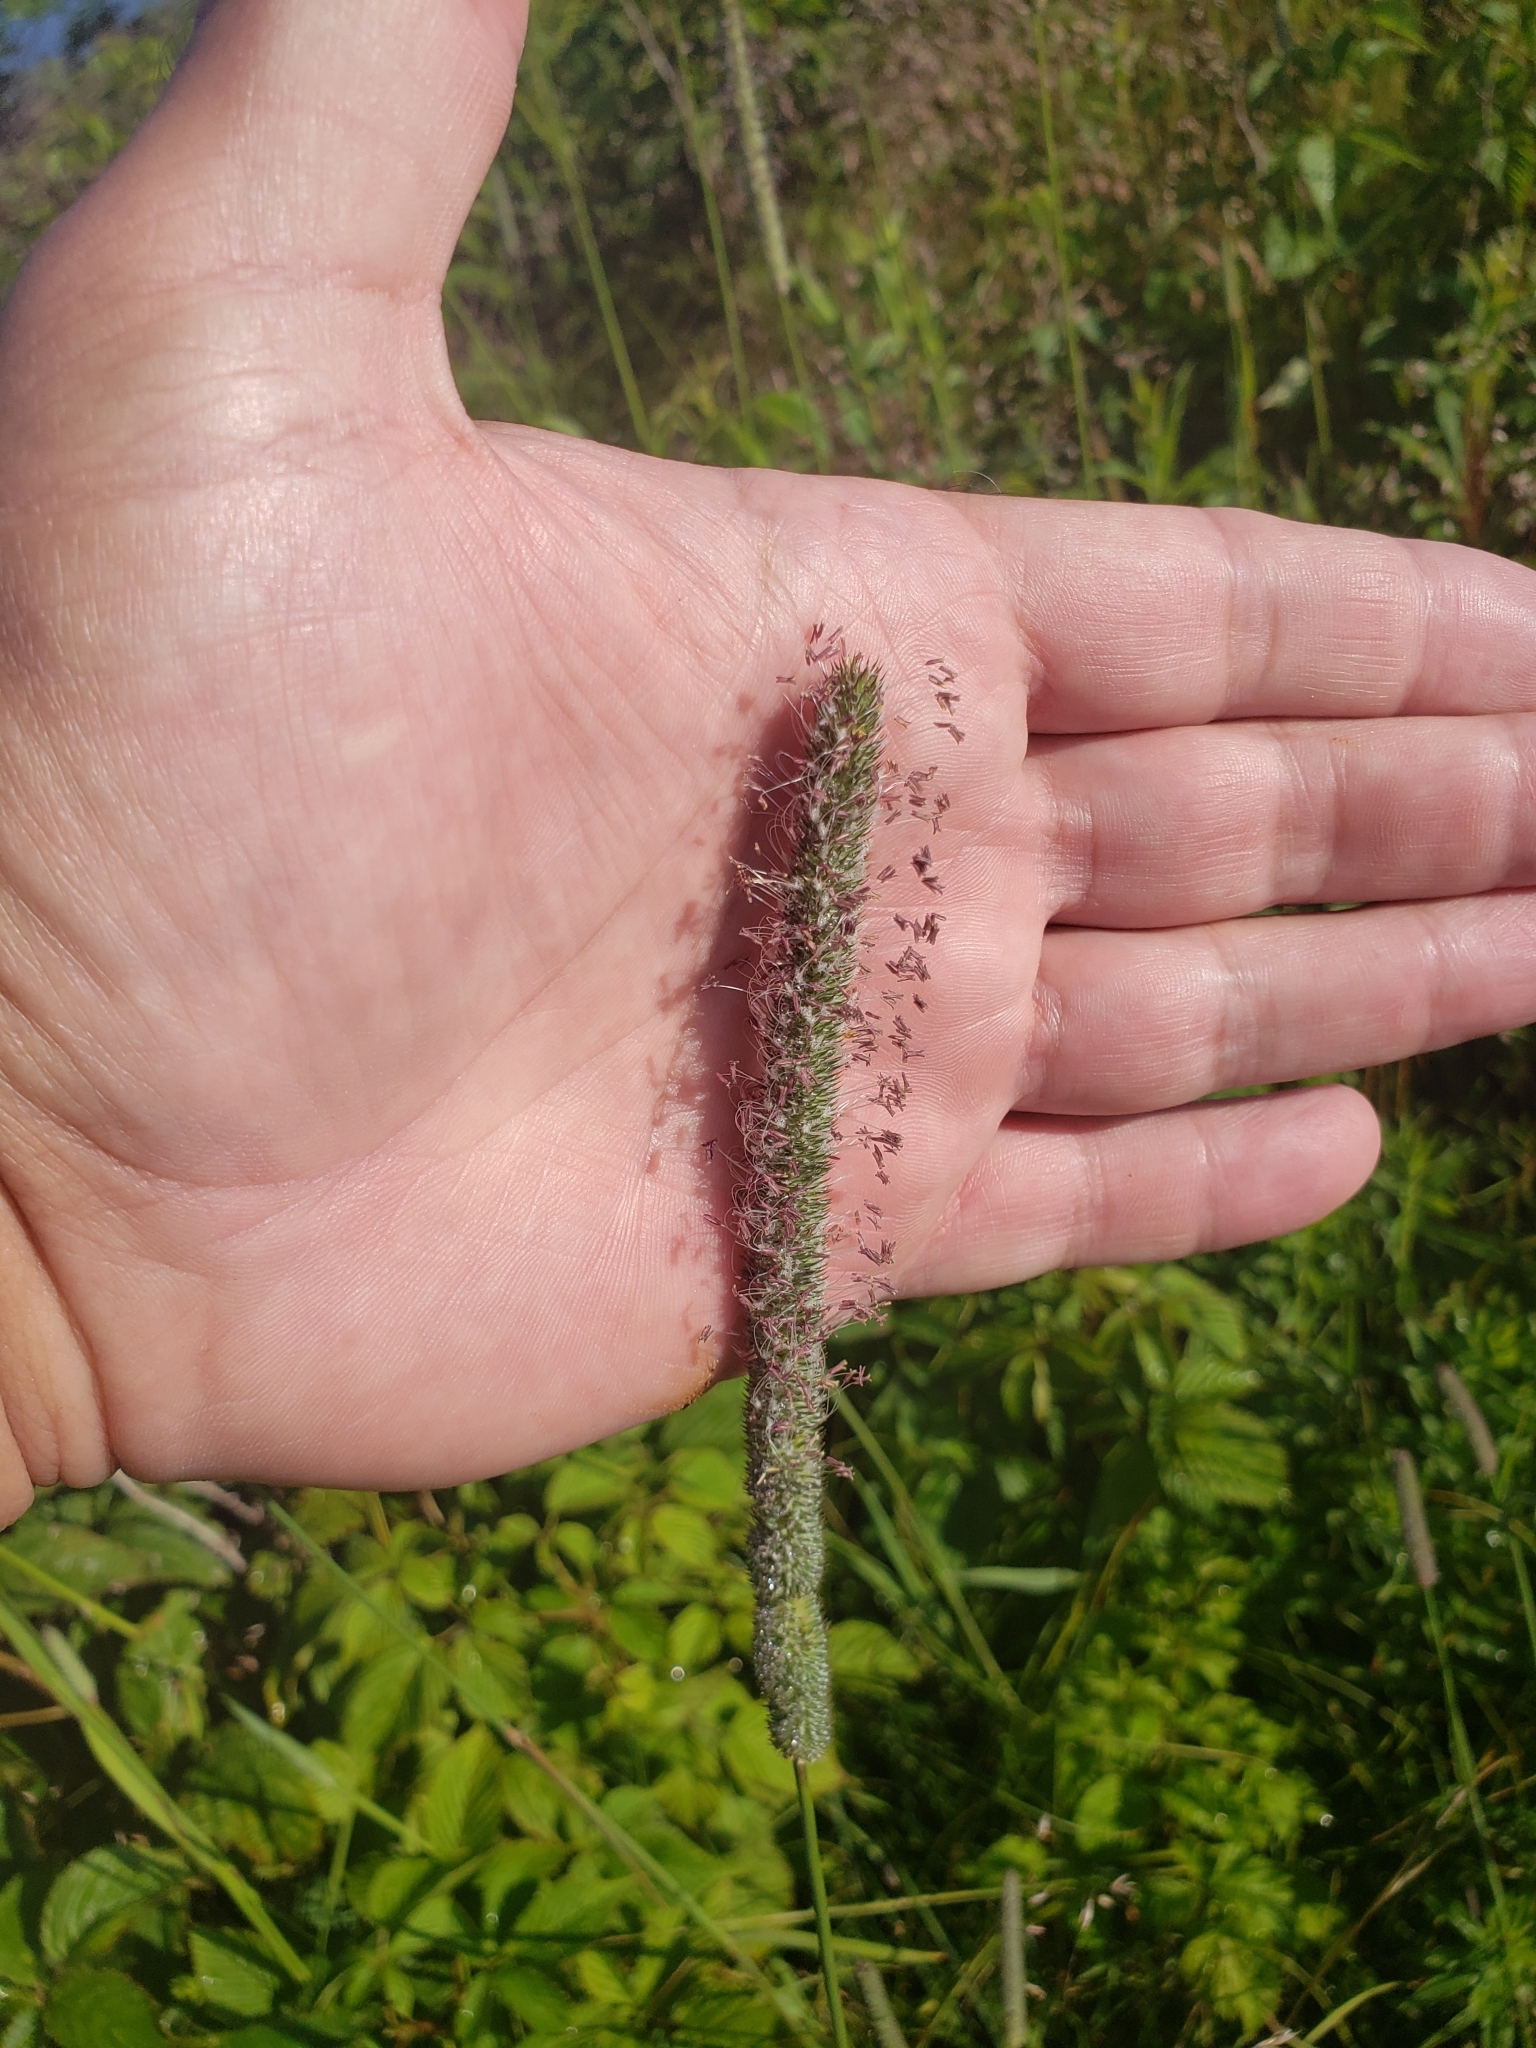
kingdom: Plantae
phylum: Tracheophyta
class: Liliopsida
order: Poales
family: Poaceae
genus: Phleum
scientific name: Phleum pratense
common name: Timothy grass
